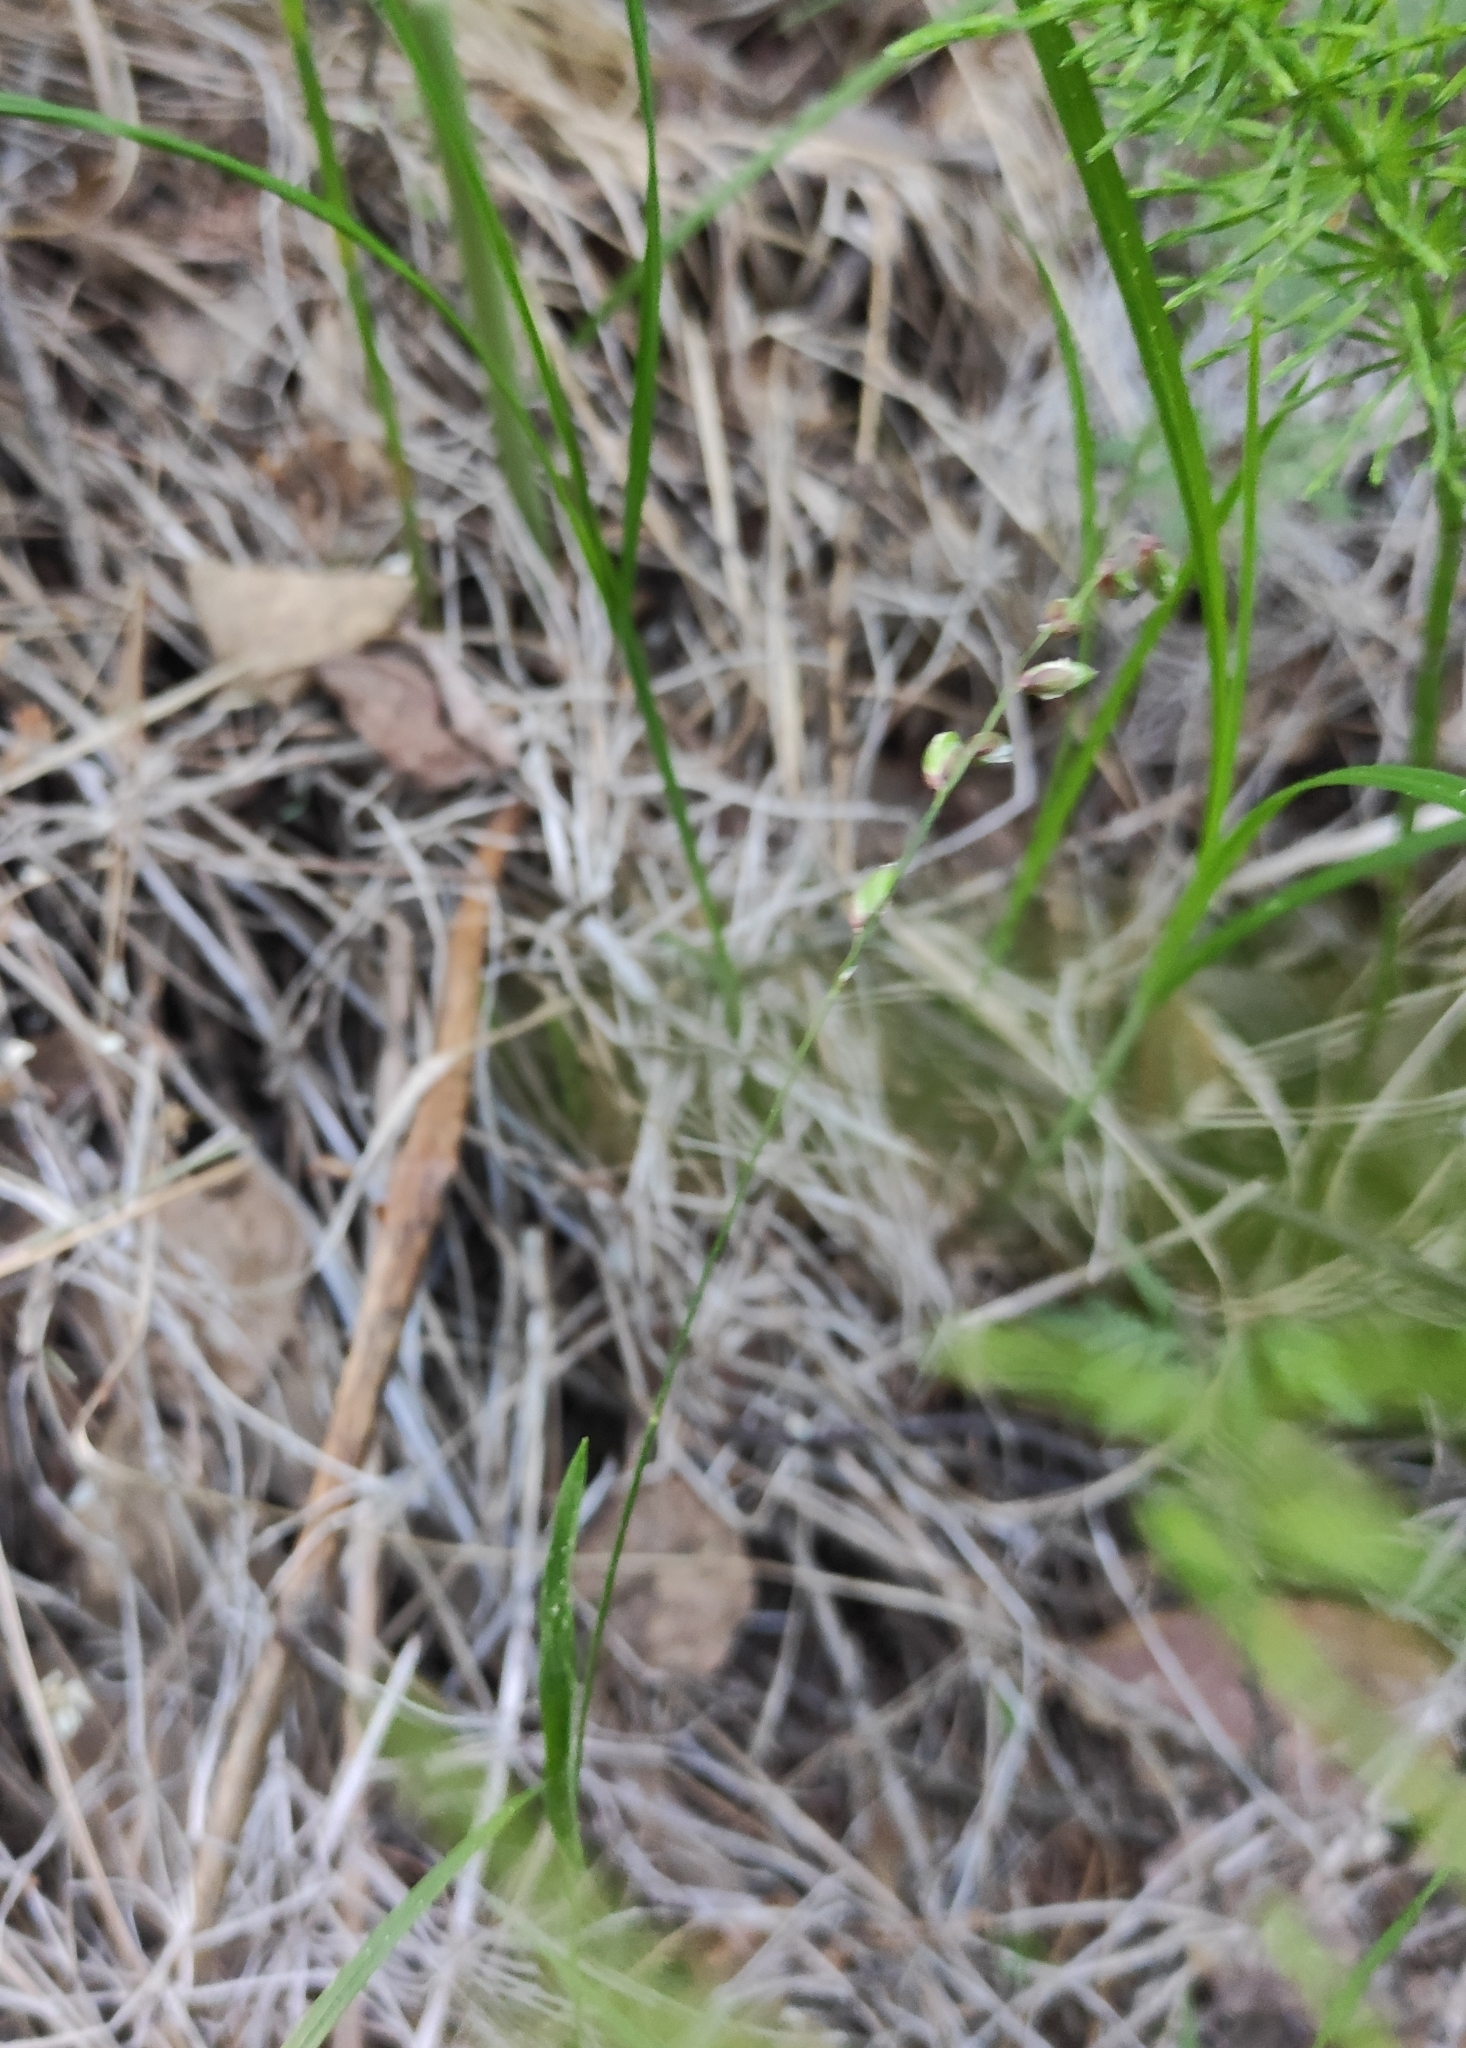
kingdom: Plantae
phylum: Tracheophyta
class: Liliopsida
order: Poales
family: Poaceae
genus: Melica
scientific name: Melica nutans
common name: Mountain melick
